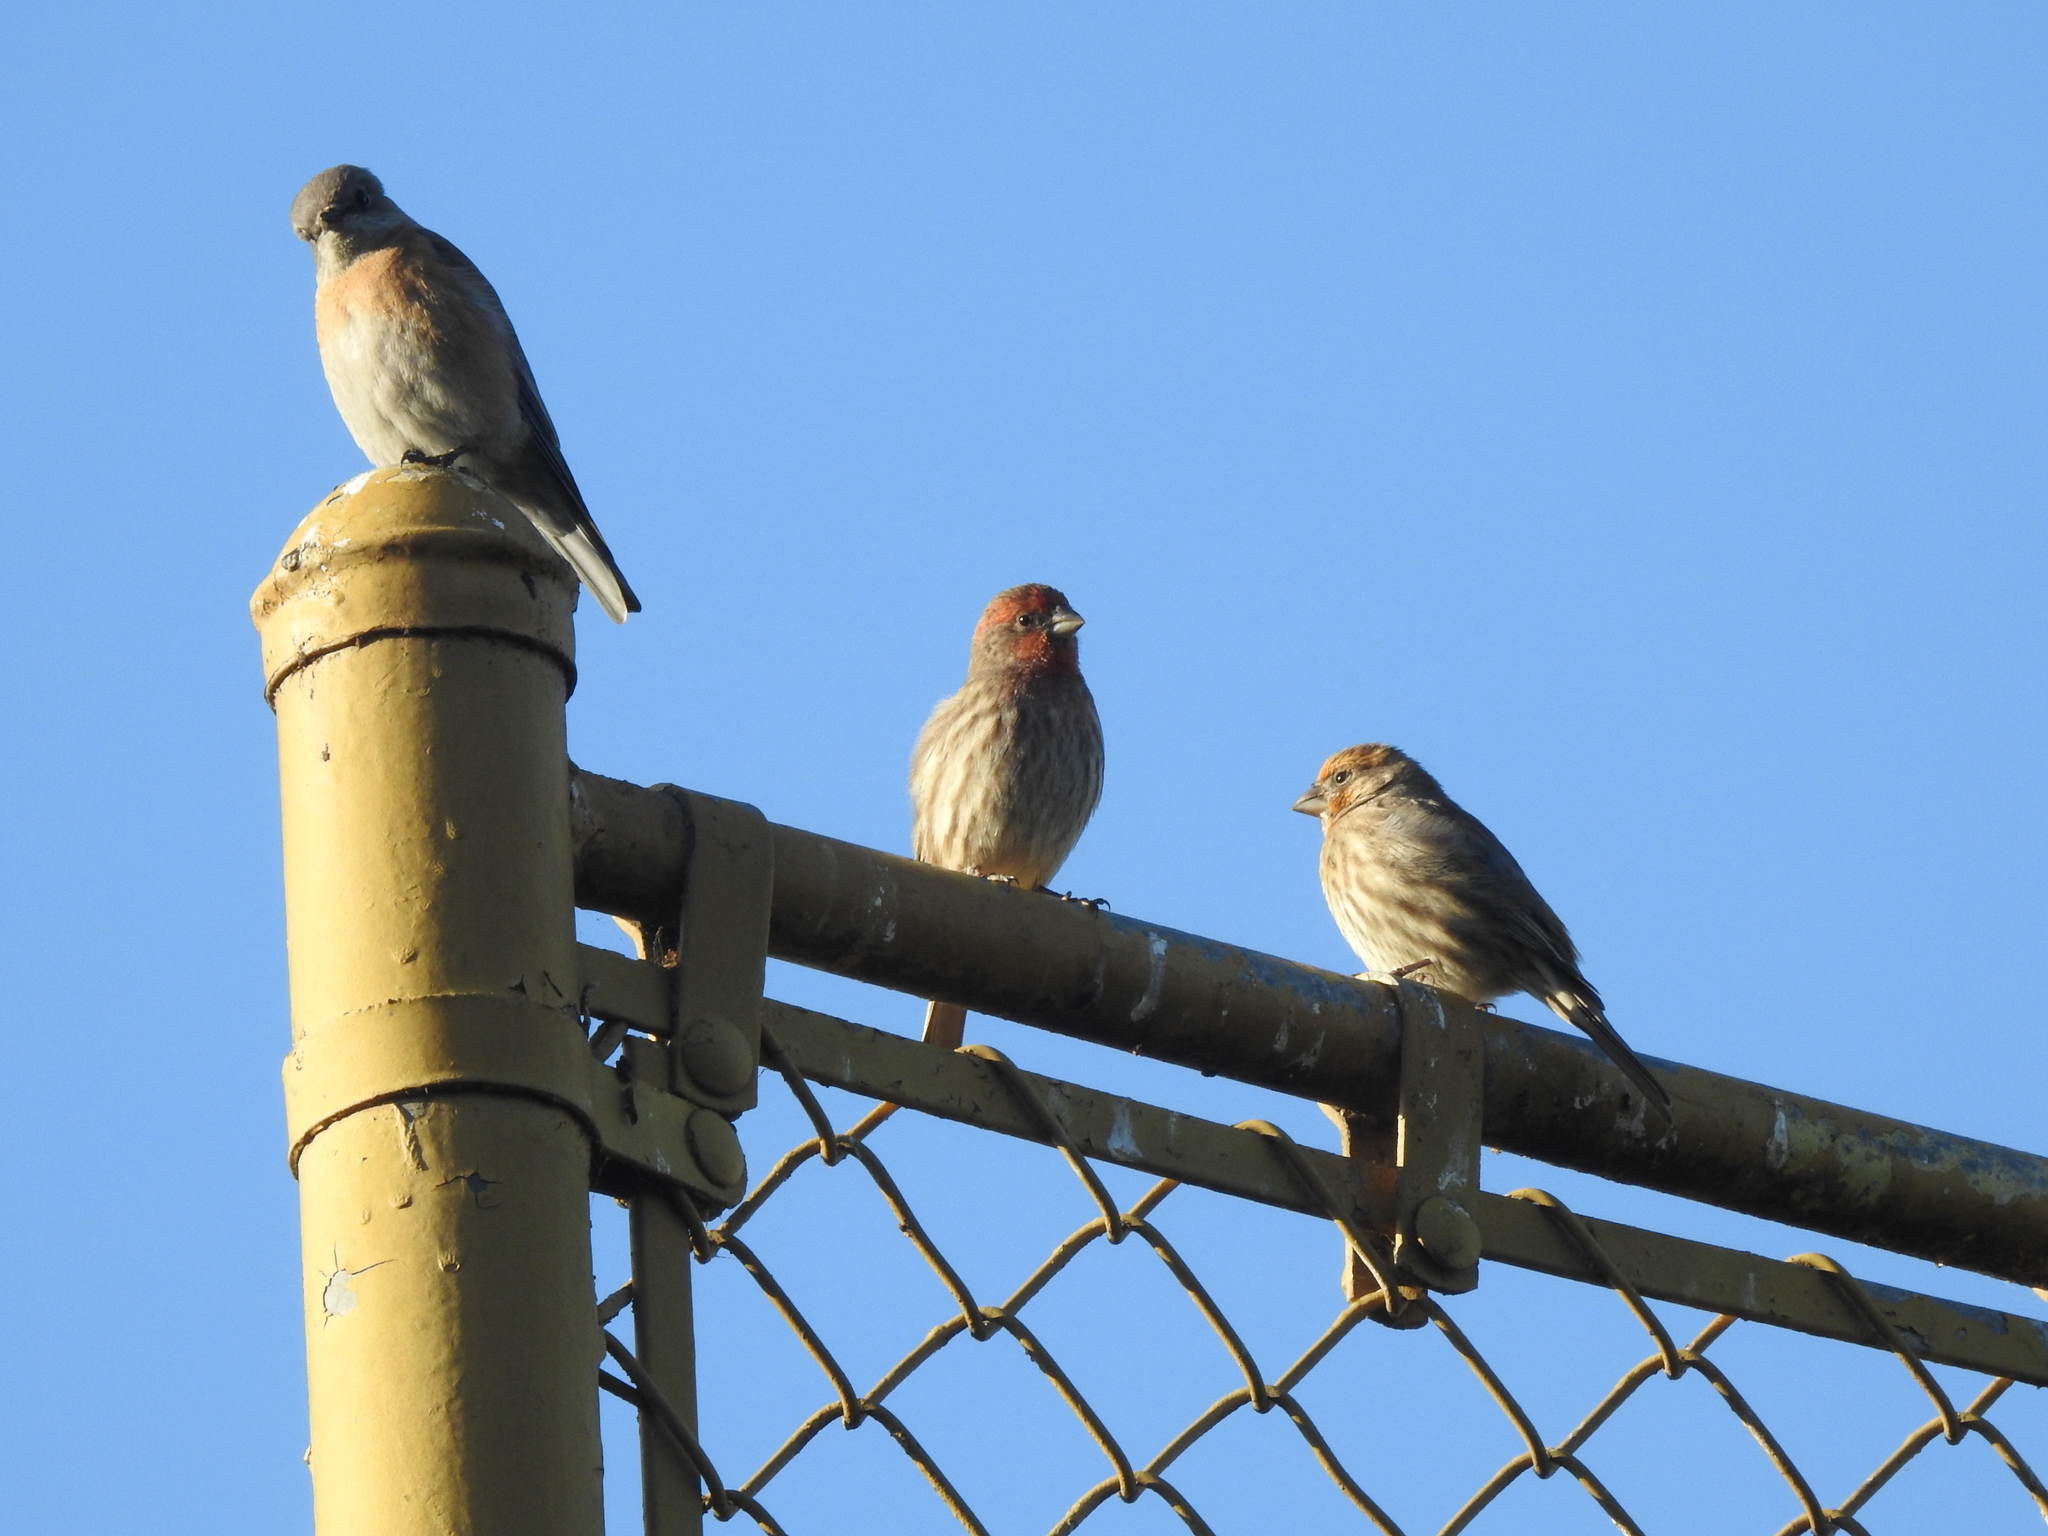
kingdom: Animalia
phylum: Chordata
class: Aves
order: Passeriformes
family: Fringillidae
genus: Haemorhous
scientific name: Haemorhous mexicanus
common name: House finch
